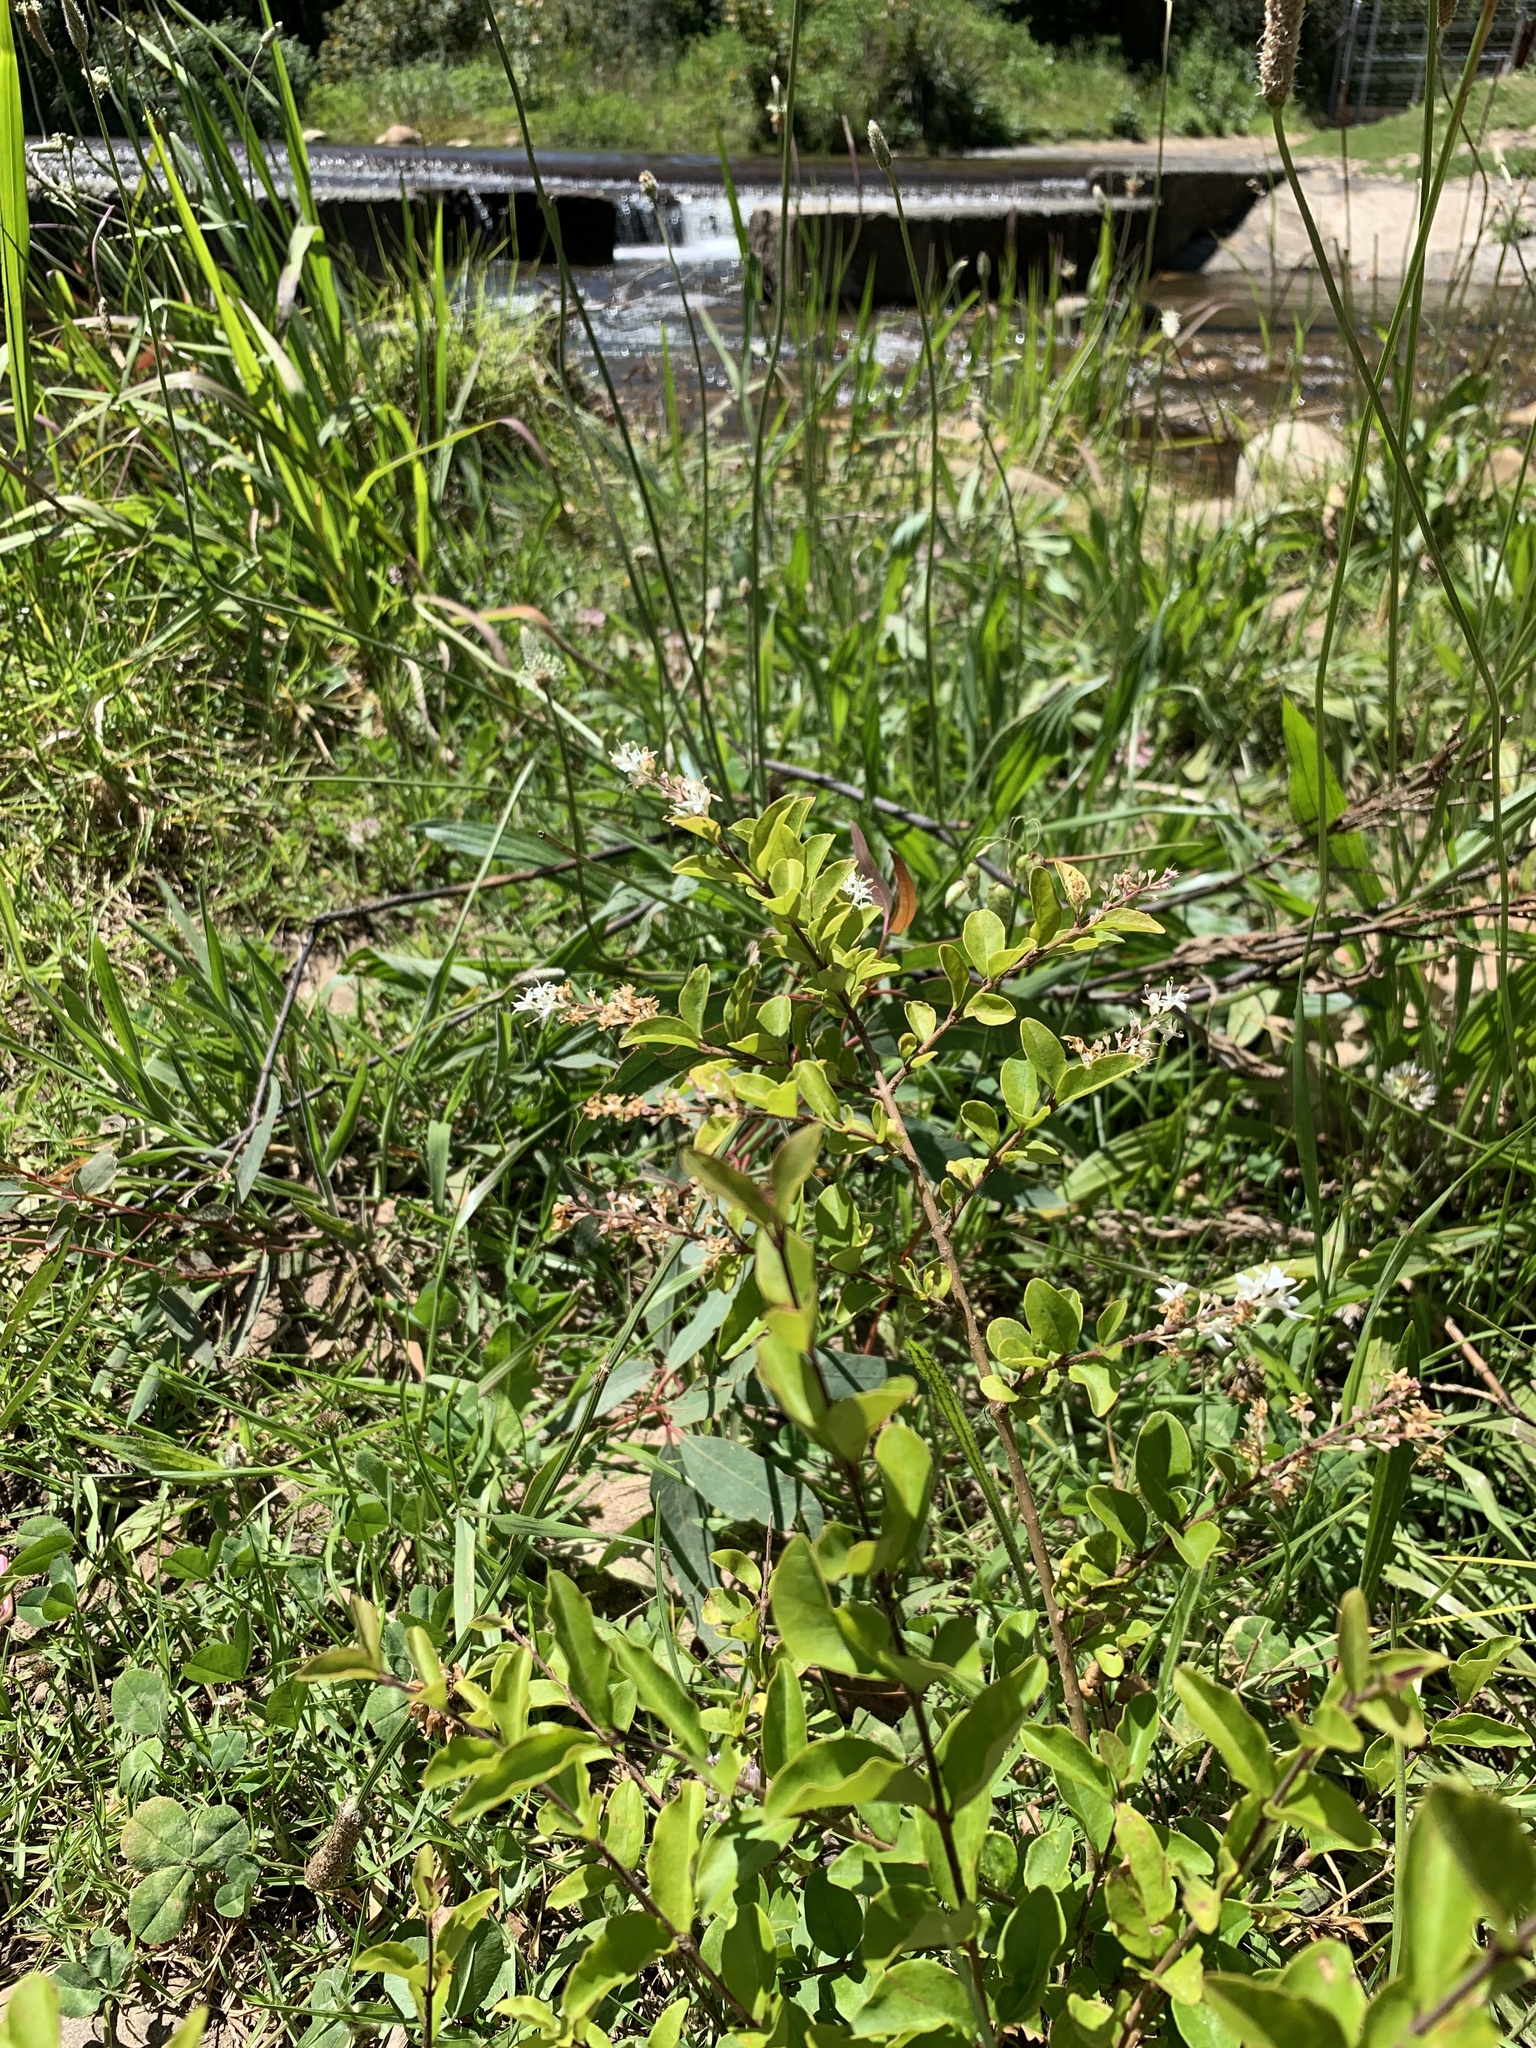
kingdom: Plantae
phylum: Tracheophyta
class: Magnoliopsida
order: Lamiales
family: Oleaceae
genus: Ligustrum
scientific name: Ligustrum sinense
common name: Chinese privet
